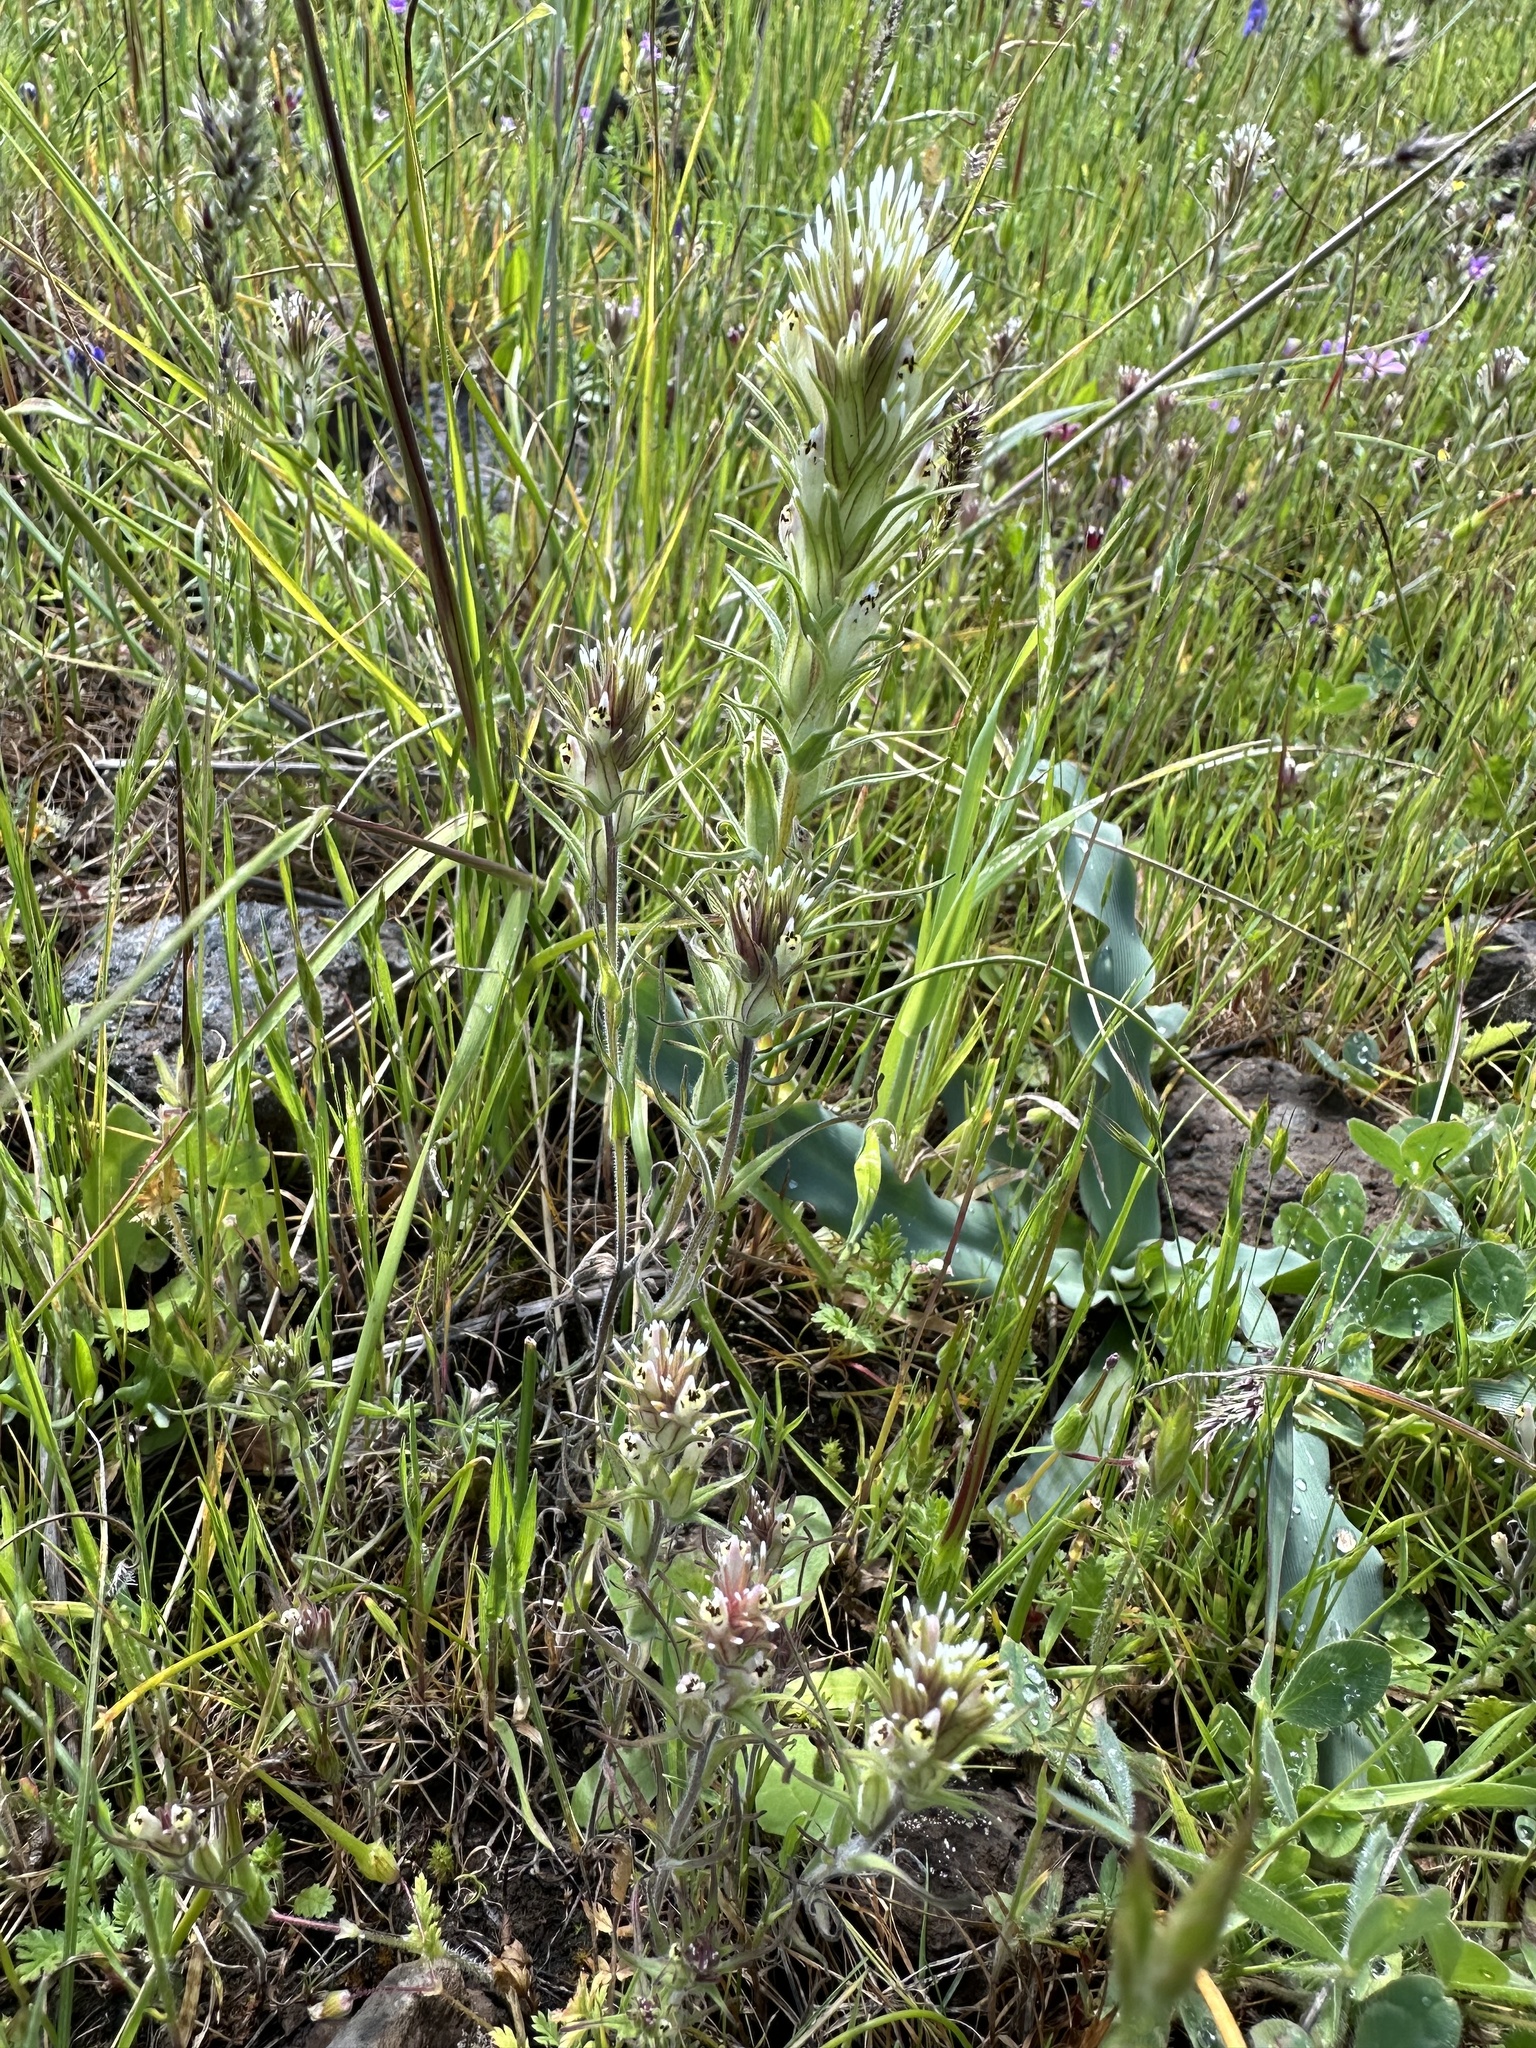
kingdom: Plantae
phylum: Tracheophyta
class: Magnoliopsida
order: Lamiales
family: Orobanchaceae
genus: Castilleja
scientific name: Castilleja attenuata
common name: Valley tassels
